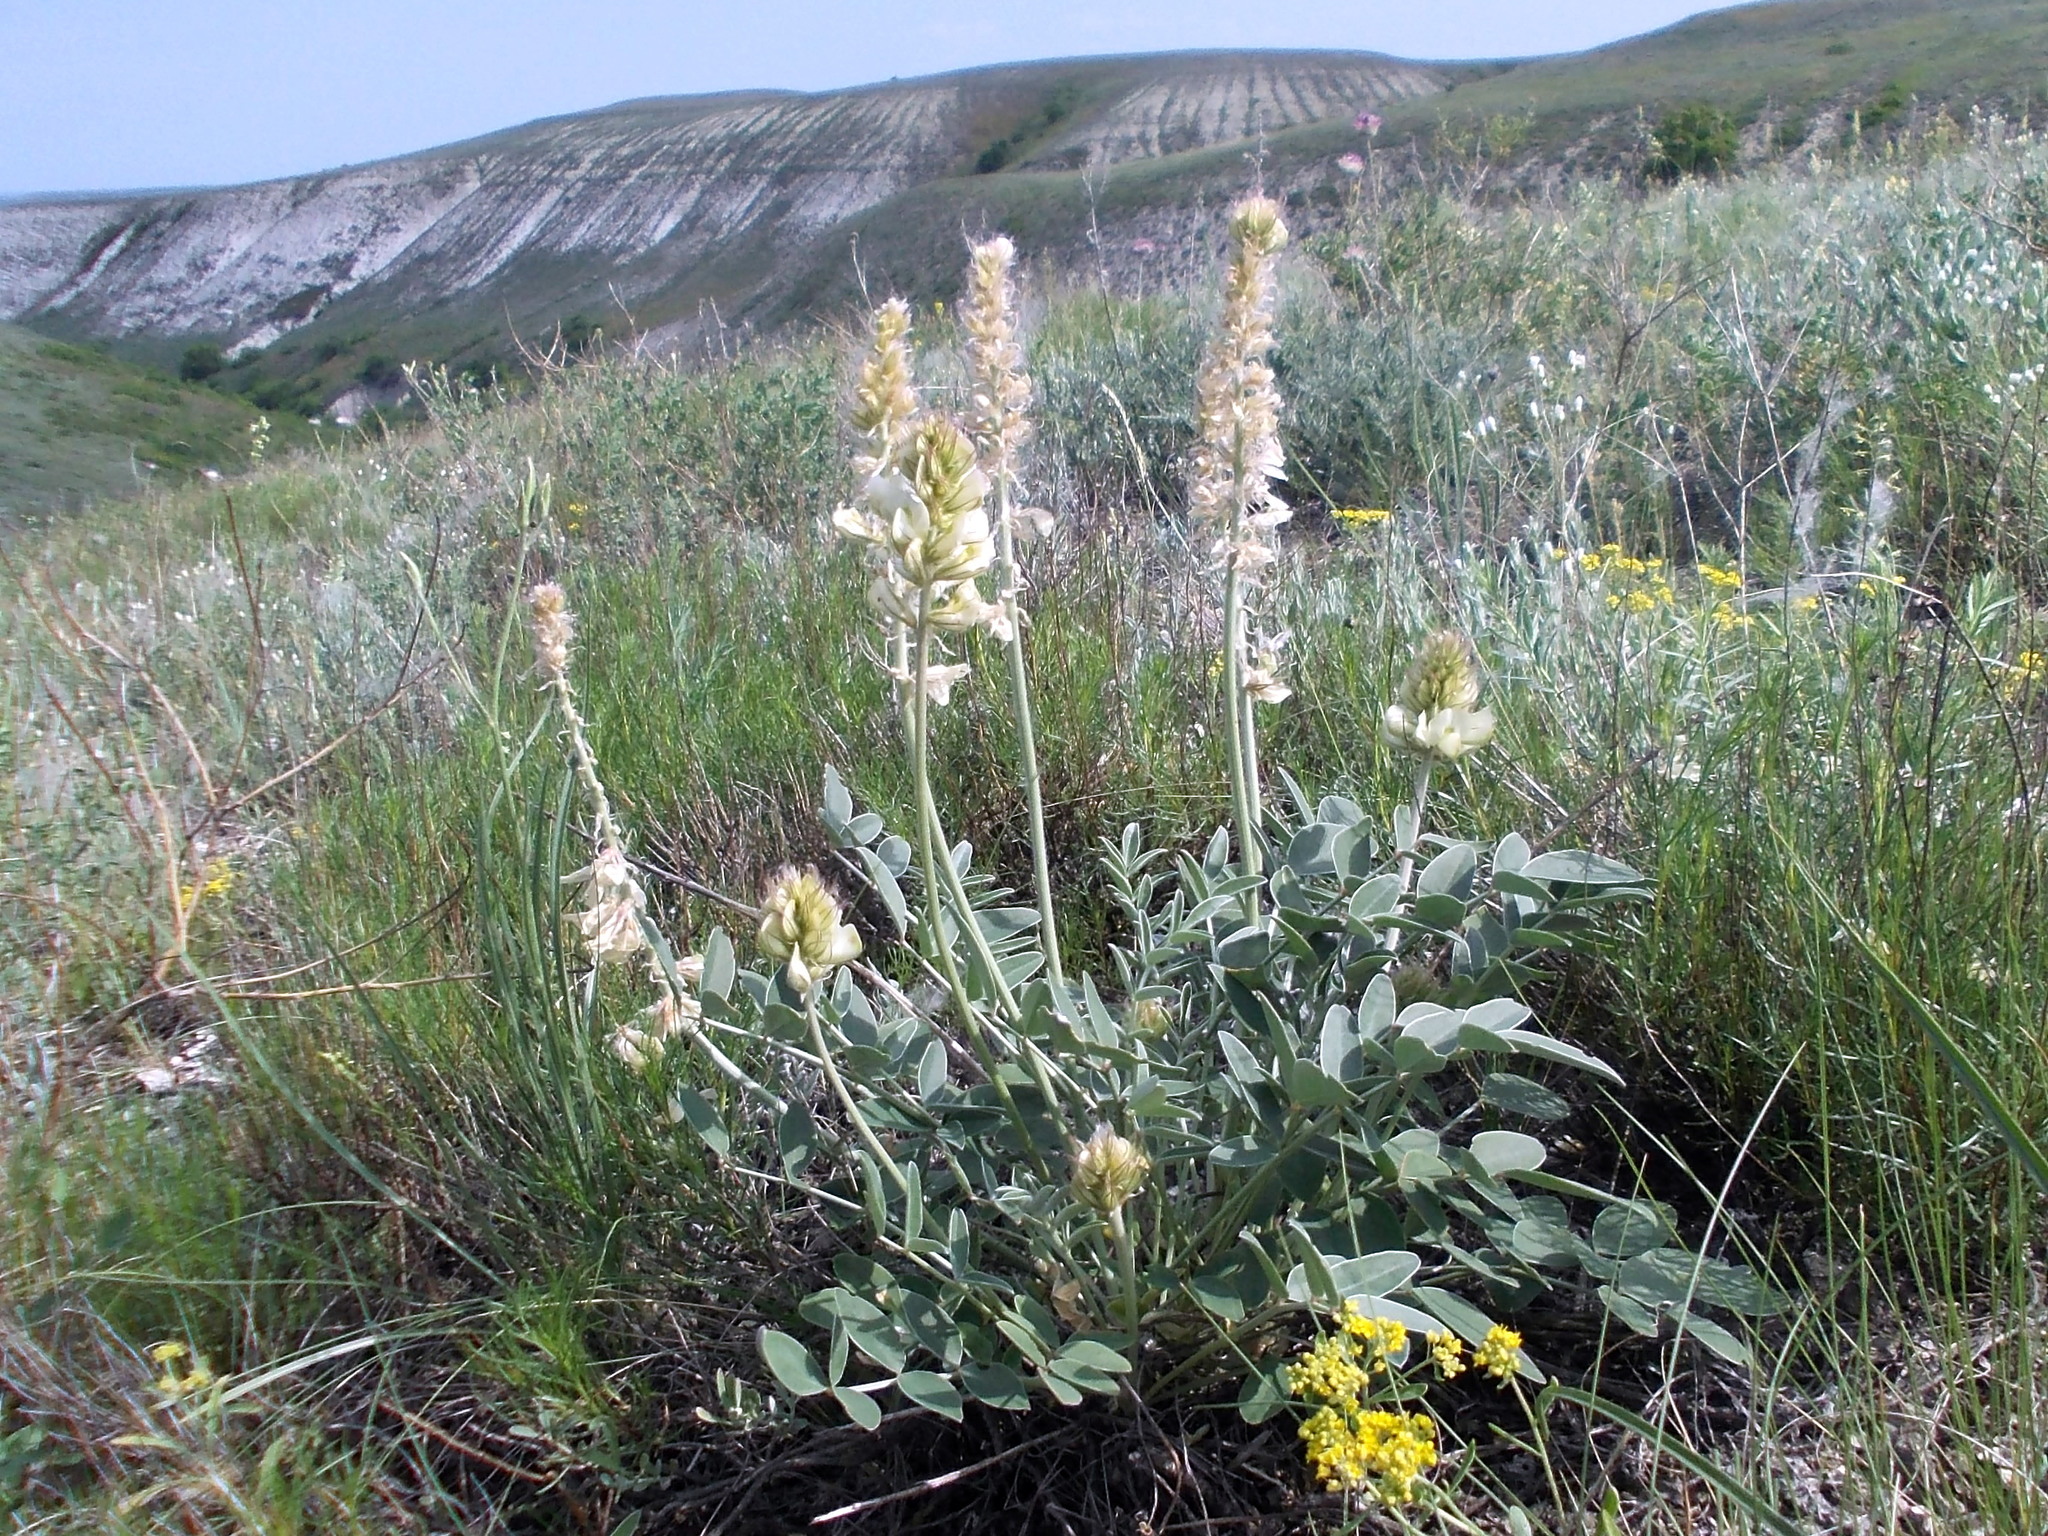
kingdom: Plantae
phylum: Tracheophyta
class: Magnoliopsida
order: Fabales
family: Fabaceae
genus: Hedysarum
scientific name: Hedysarum grandiflorum
